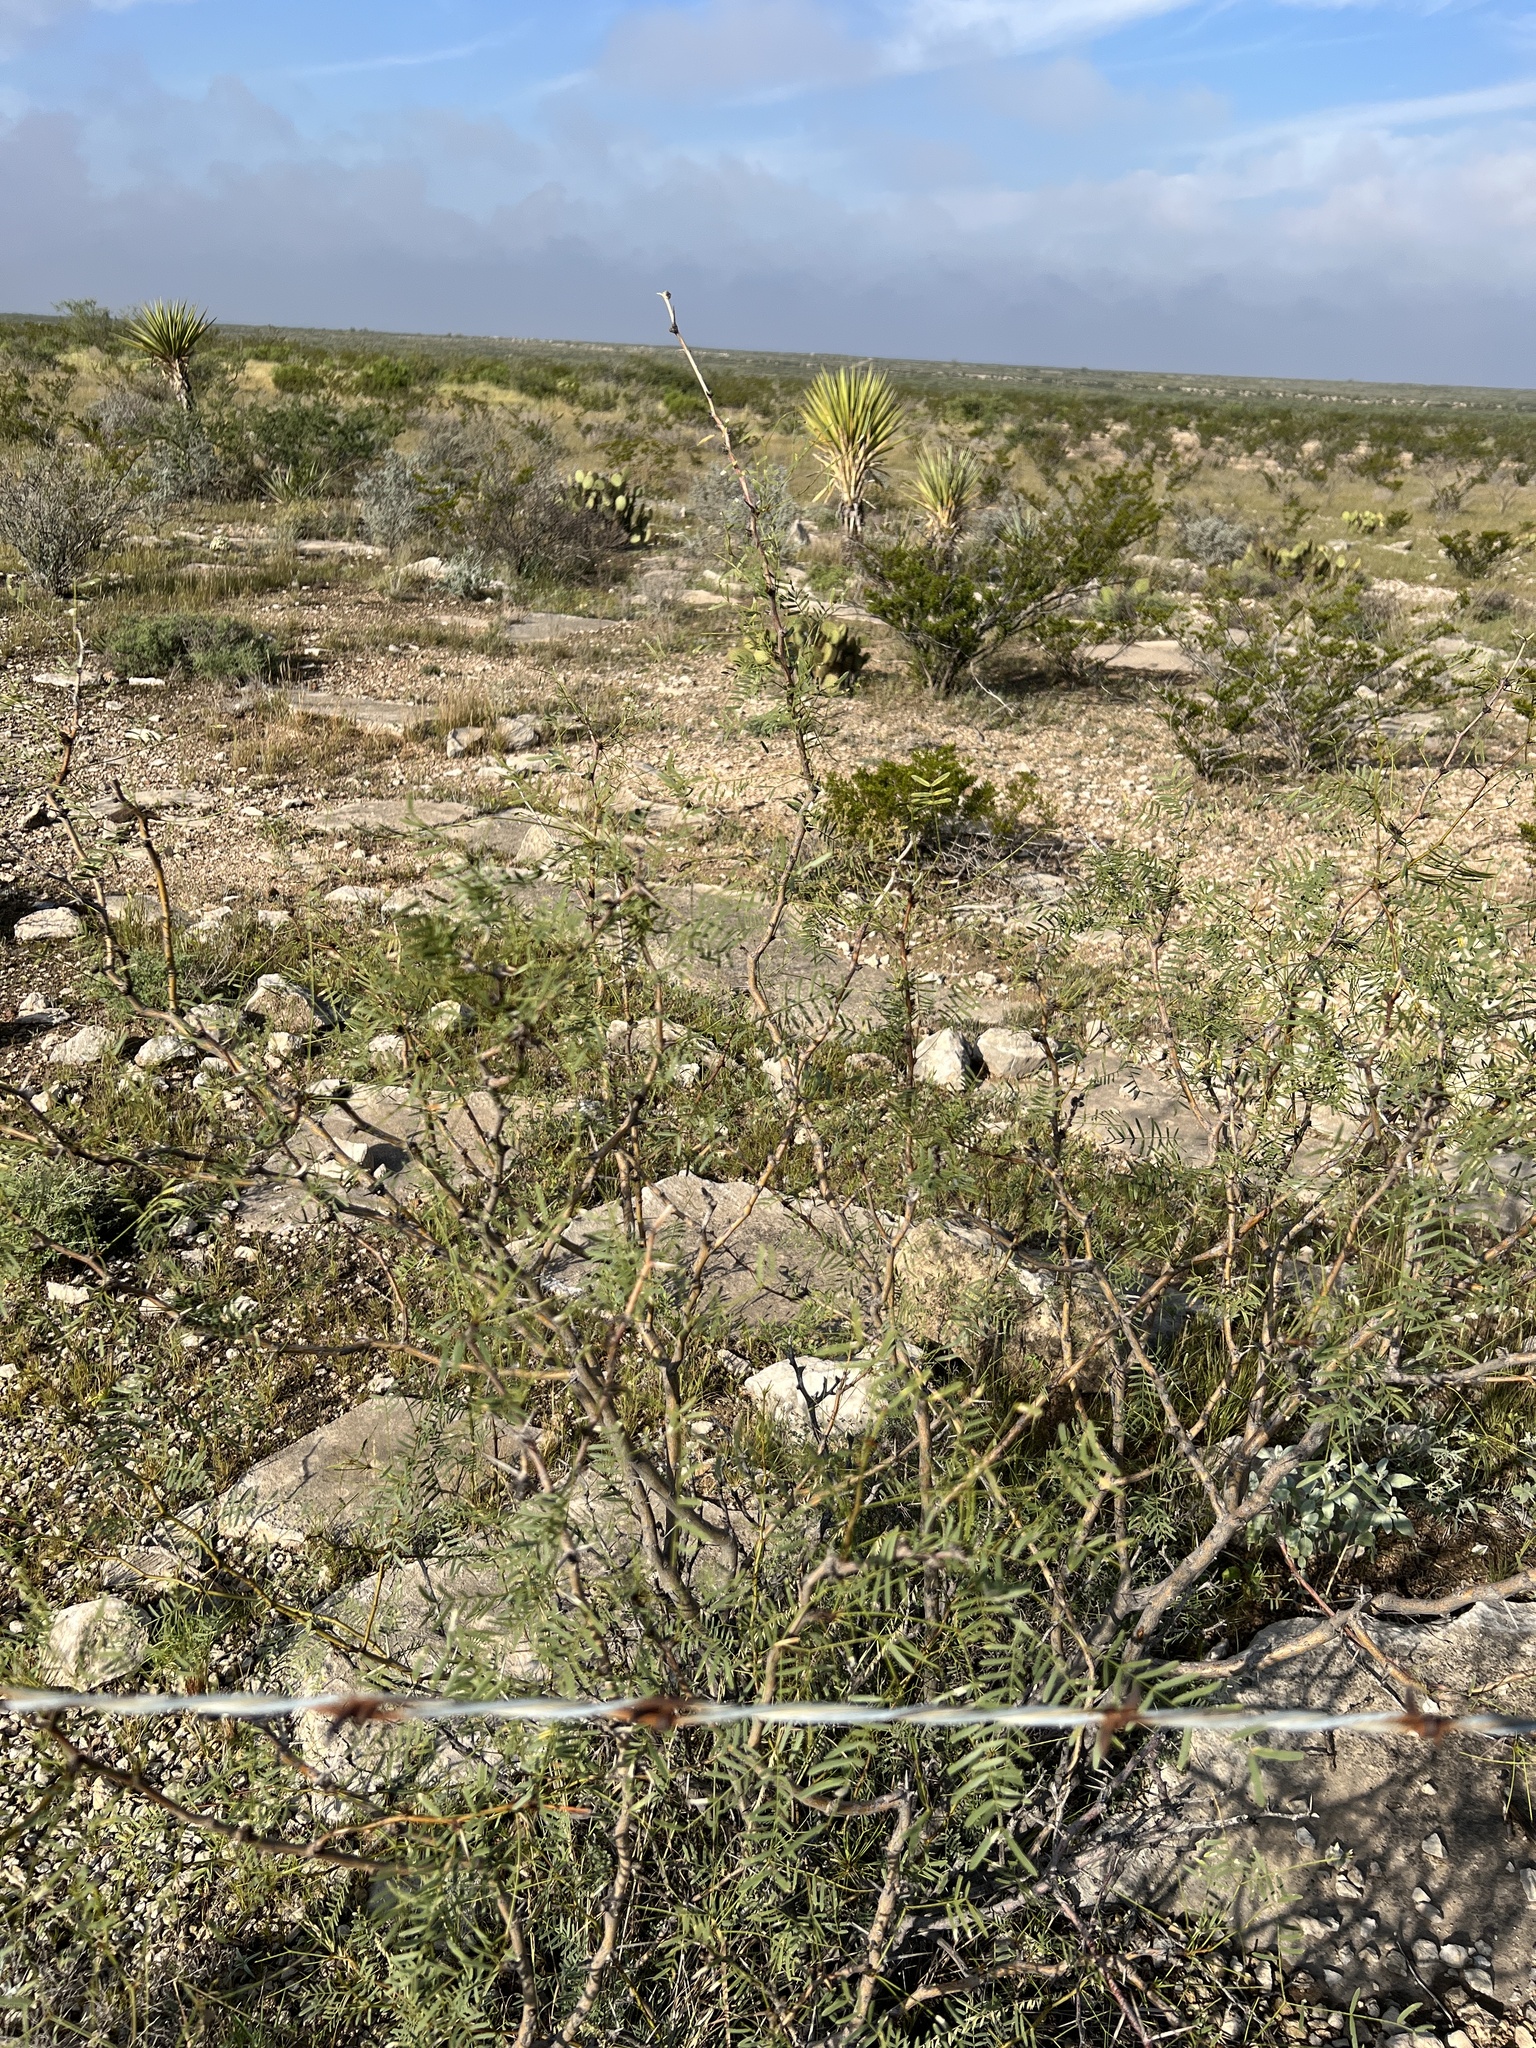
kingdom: Plantae
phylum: Tracheophyta
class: Magnoliopsida
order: Fabales
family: Fabaceae
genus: Prosopis
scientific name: Prosopis glandulosa
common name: Honey mesquite
